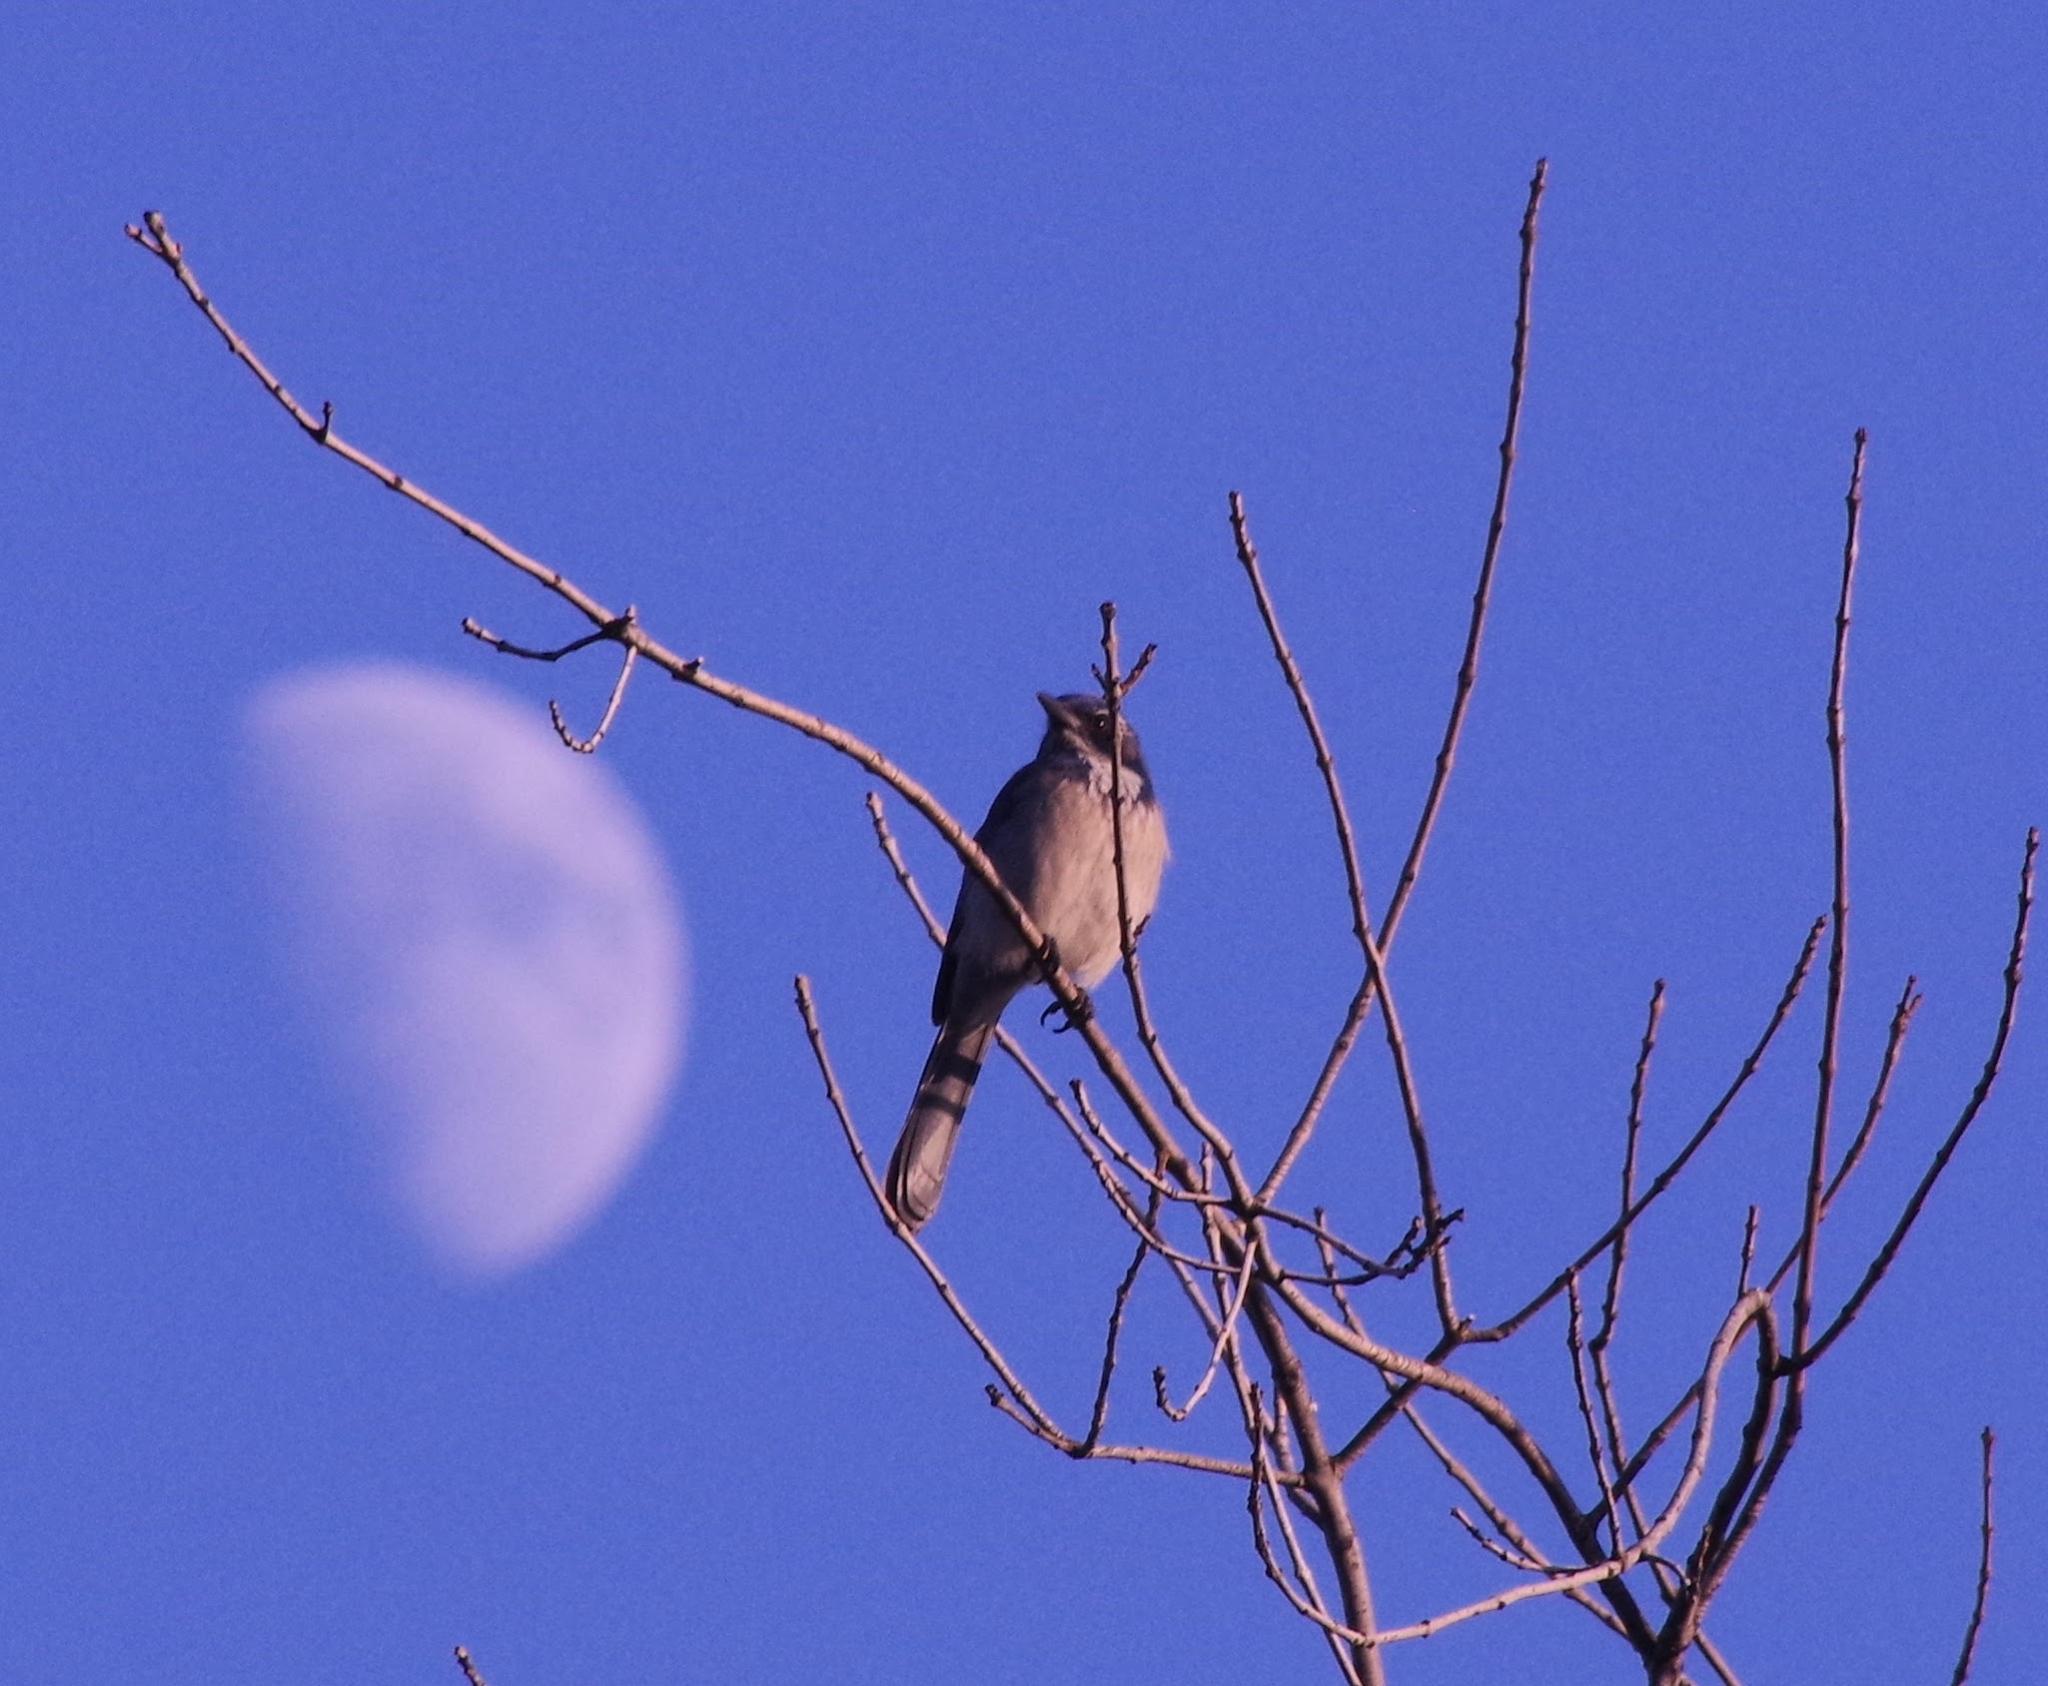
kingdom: Animalia
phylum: Chordata
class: Aves
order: Passeriformes
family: Corvidae
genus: Aphelocoma
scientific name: Aphelocoma californica
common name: California scrub-jay
